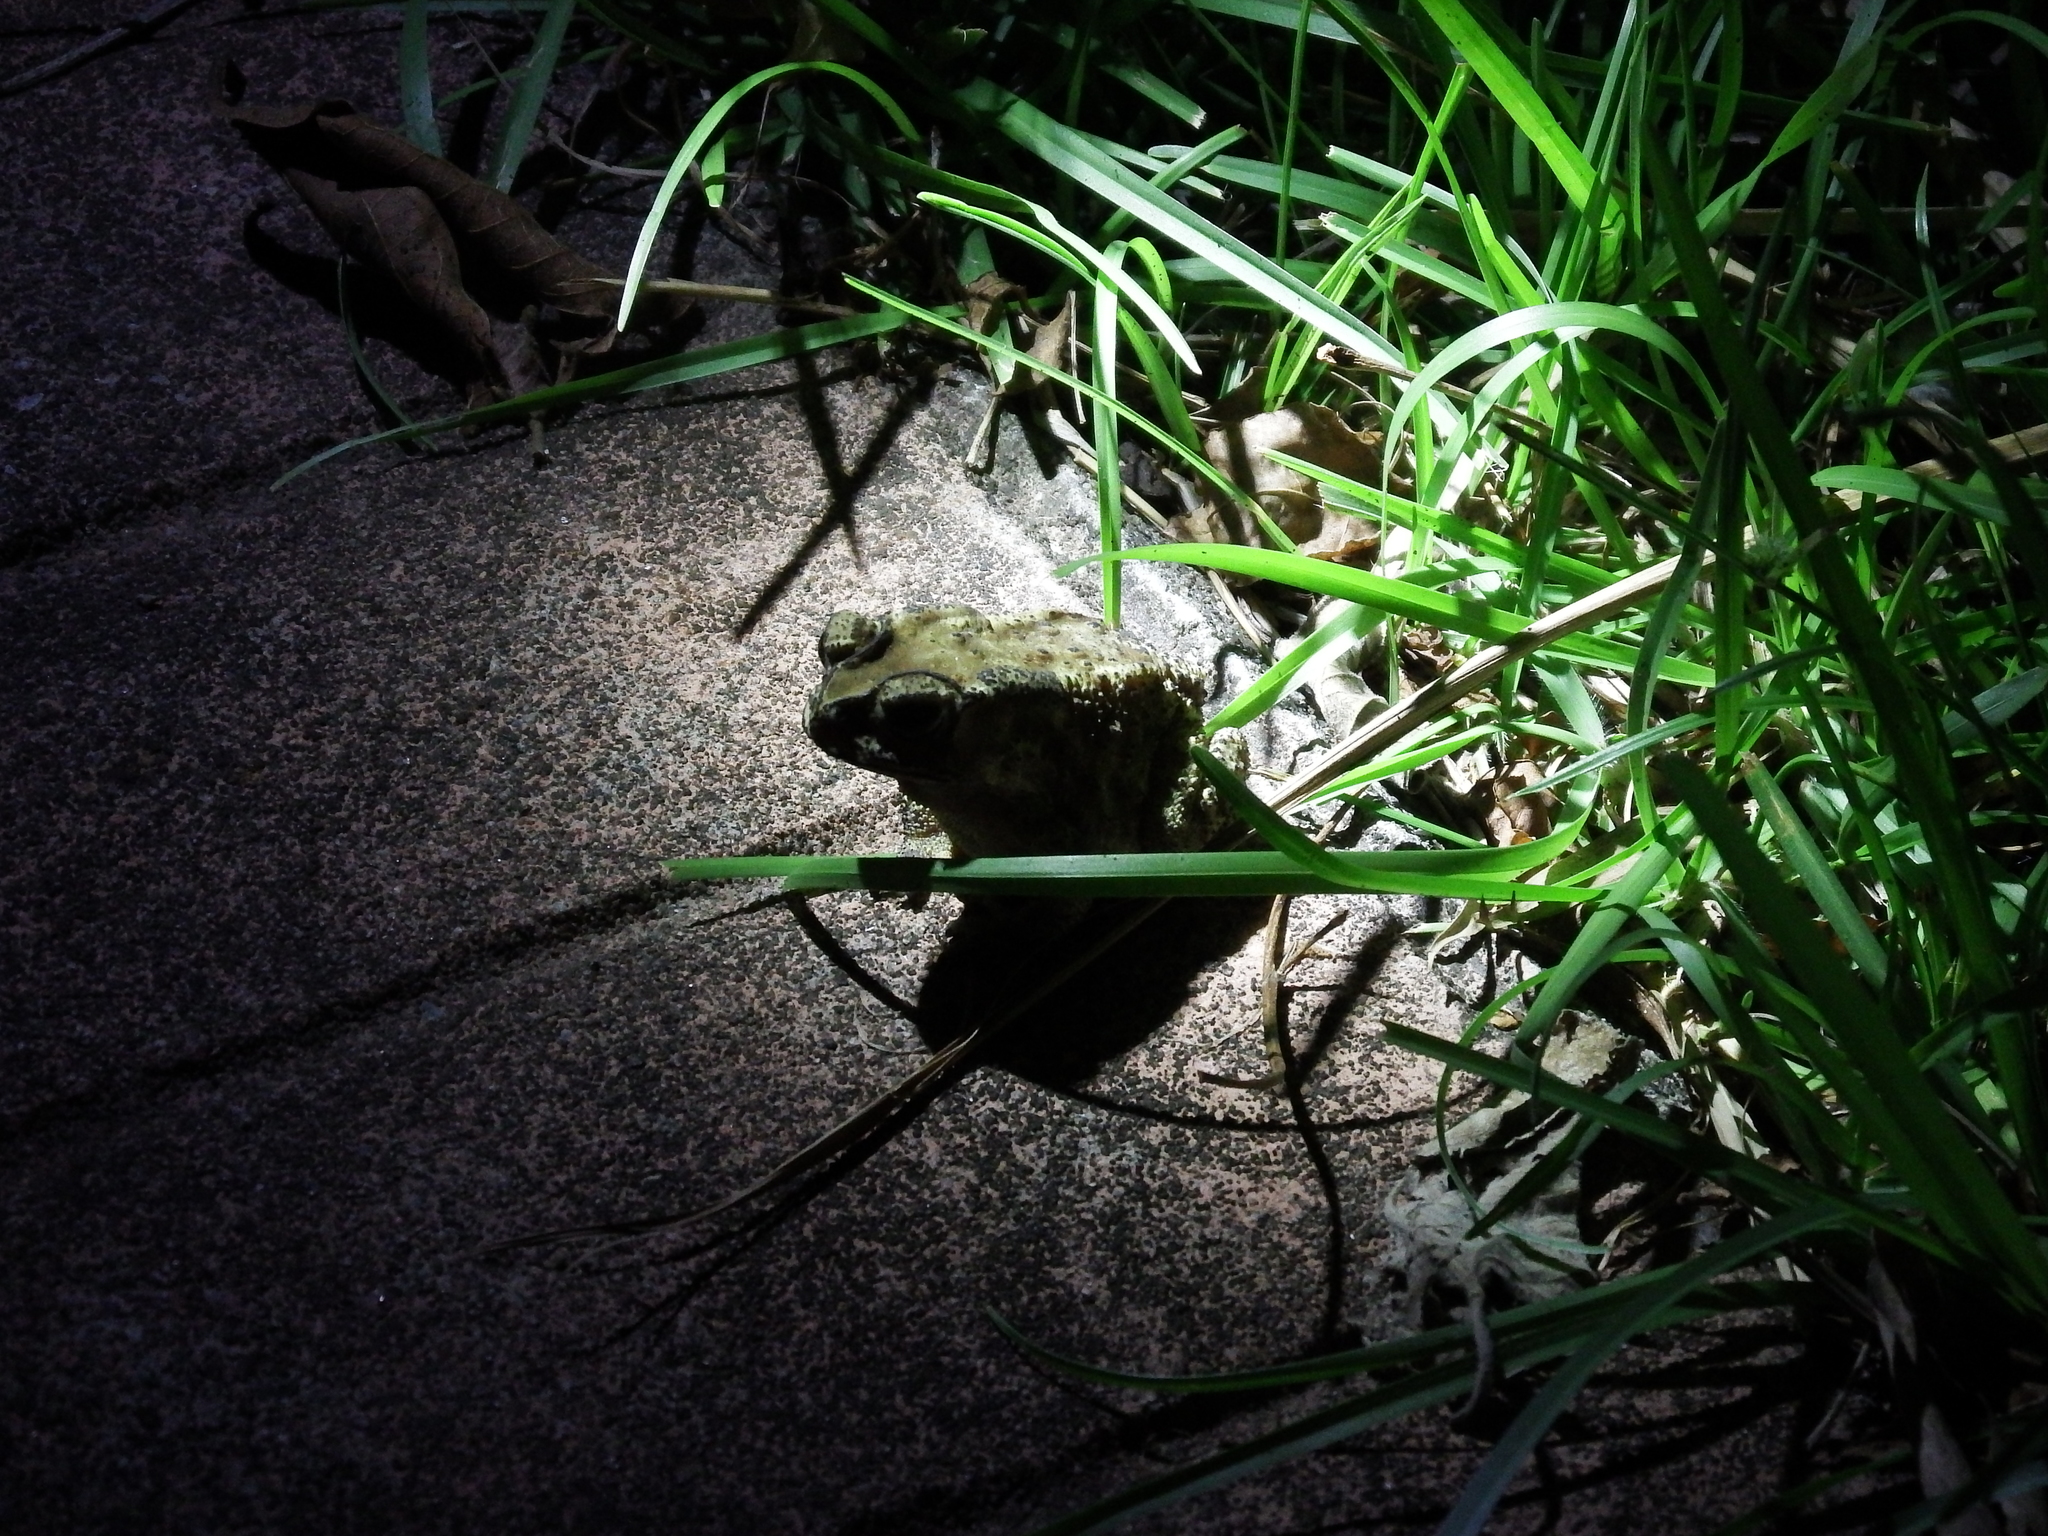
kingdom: Animalia
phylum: Chordata
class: Amphibia
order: Anura
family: Bufonidae
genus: Duttaphrynus
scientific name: Duttaphrynus melanostictus
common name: Common sunda toad
